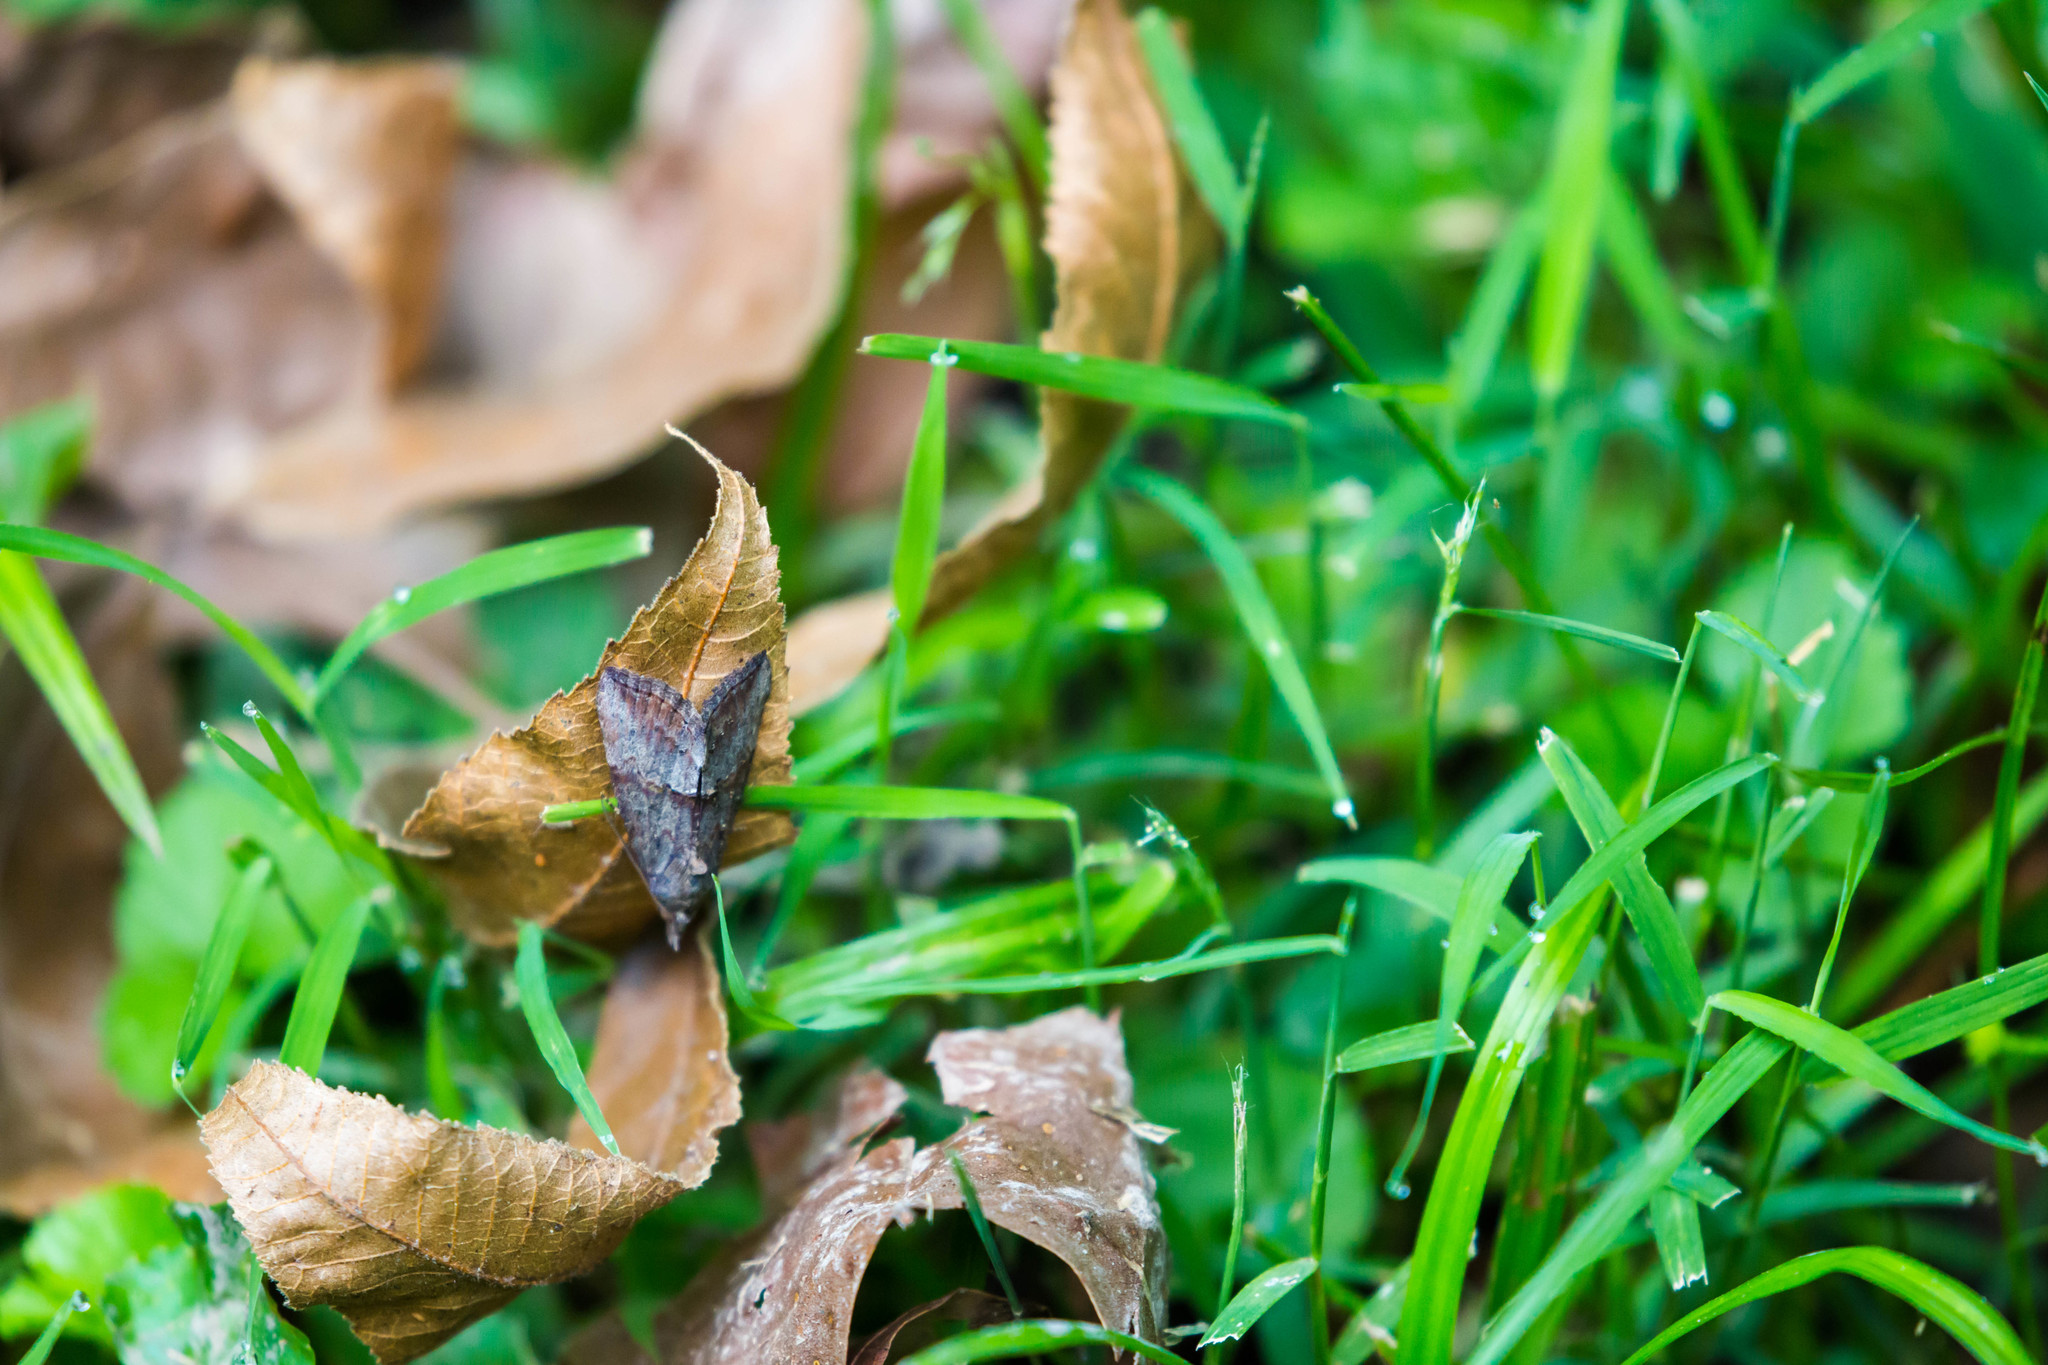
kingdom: Animalia
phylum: Arthropoda
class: Insecta
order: Lepidoptera
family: Erebidae
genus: Hypena
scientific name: Hypena scabra
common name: Green cloverworm
